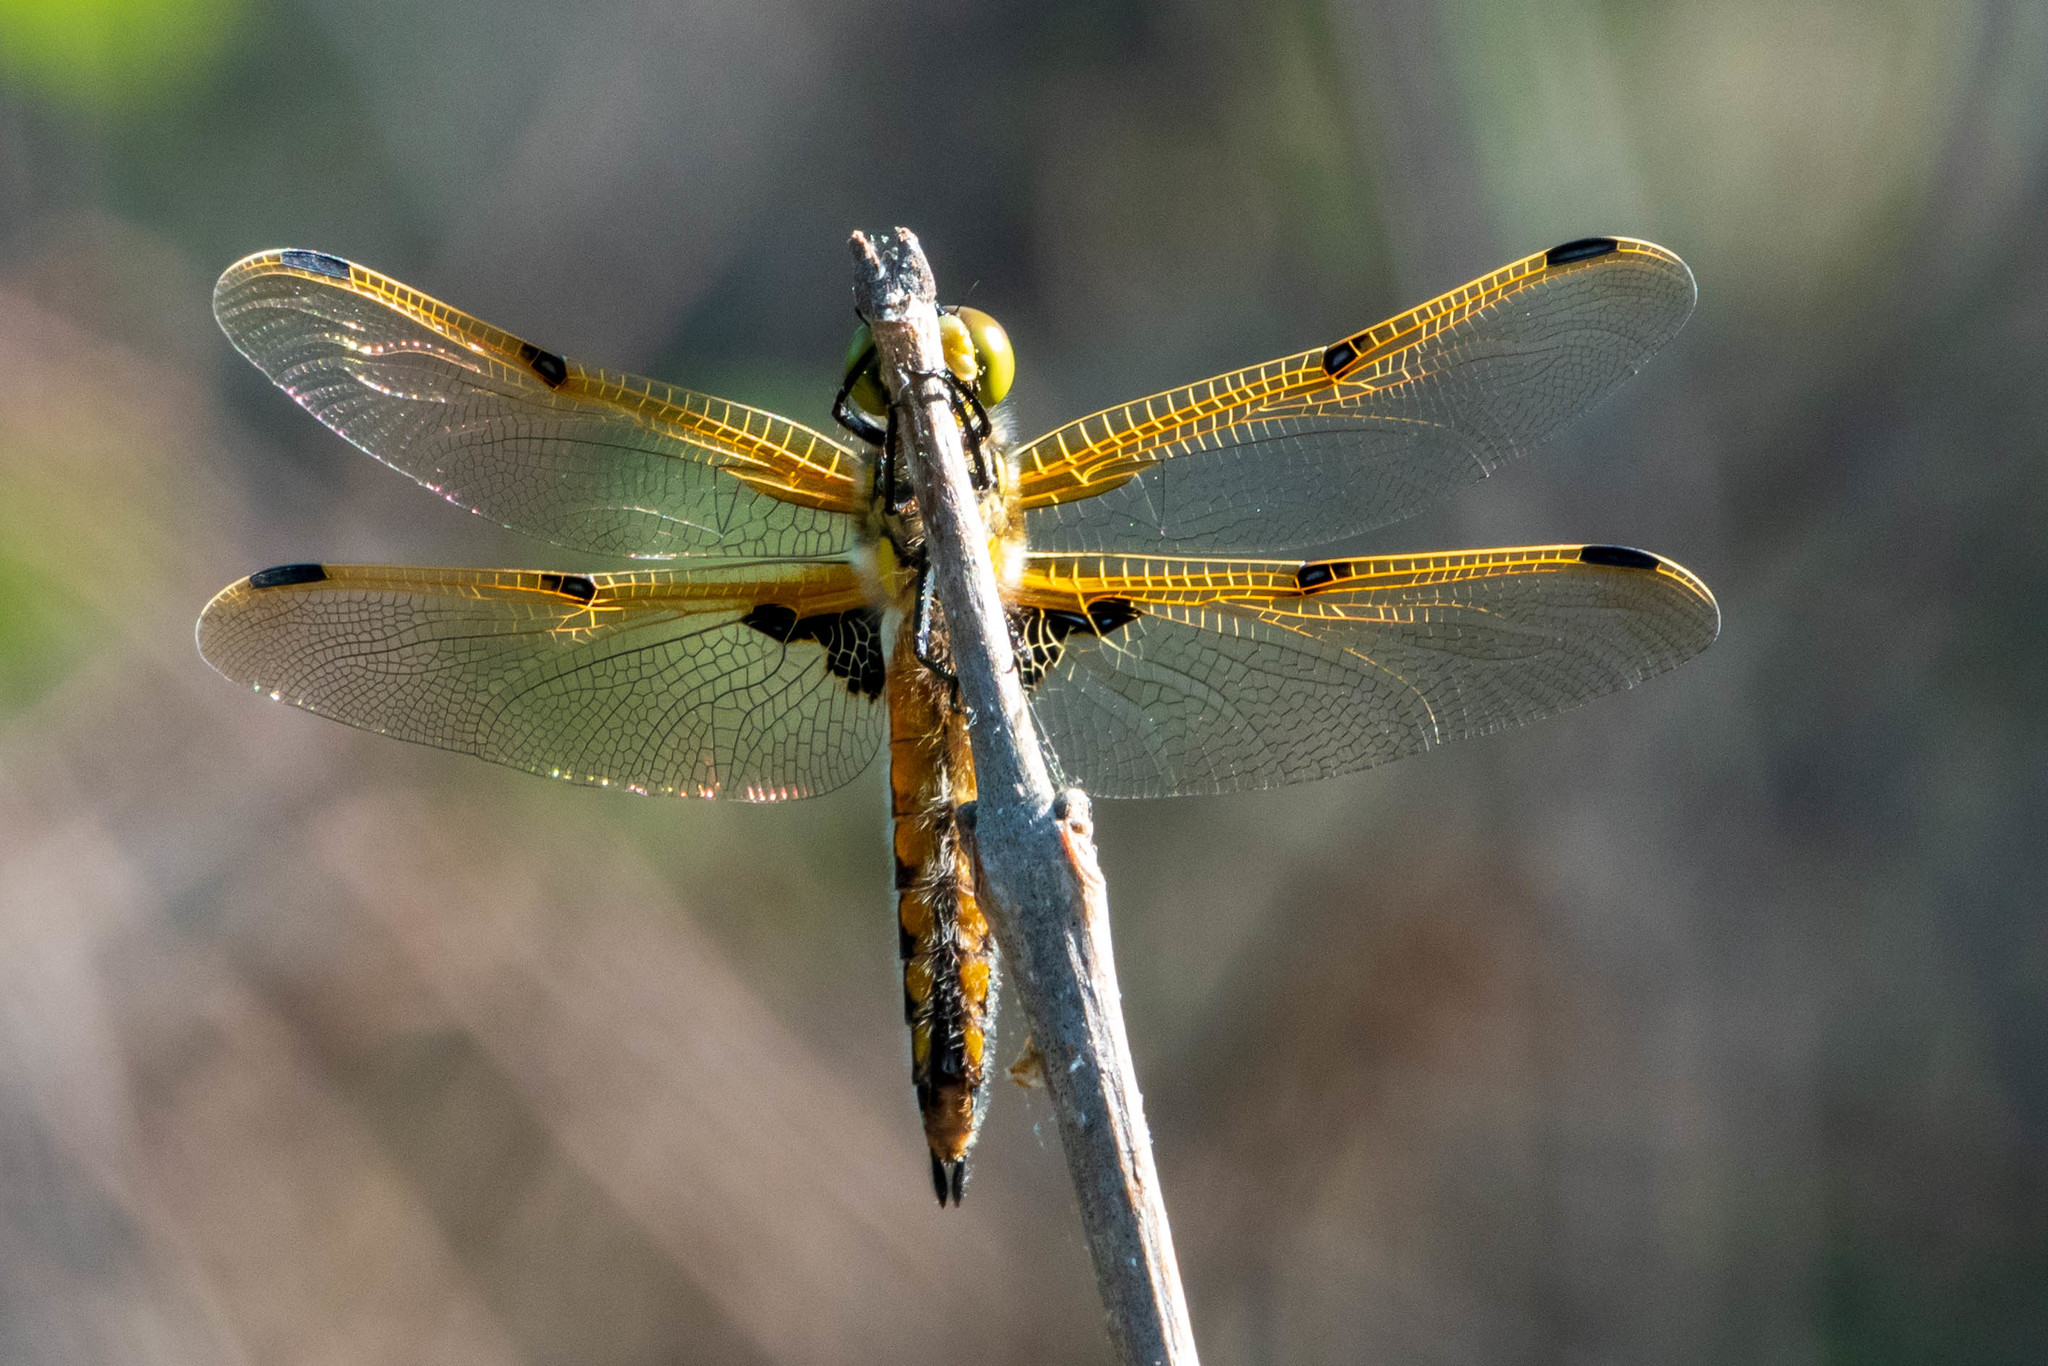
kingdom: Animalia
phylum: Arthropoda
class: Insecta
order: Odonata
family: Libellulidae
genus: Libellula
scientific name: Libellula quadrimaculata
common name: Four-spotted chaser
